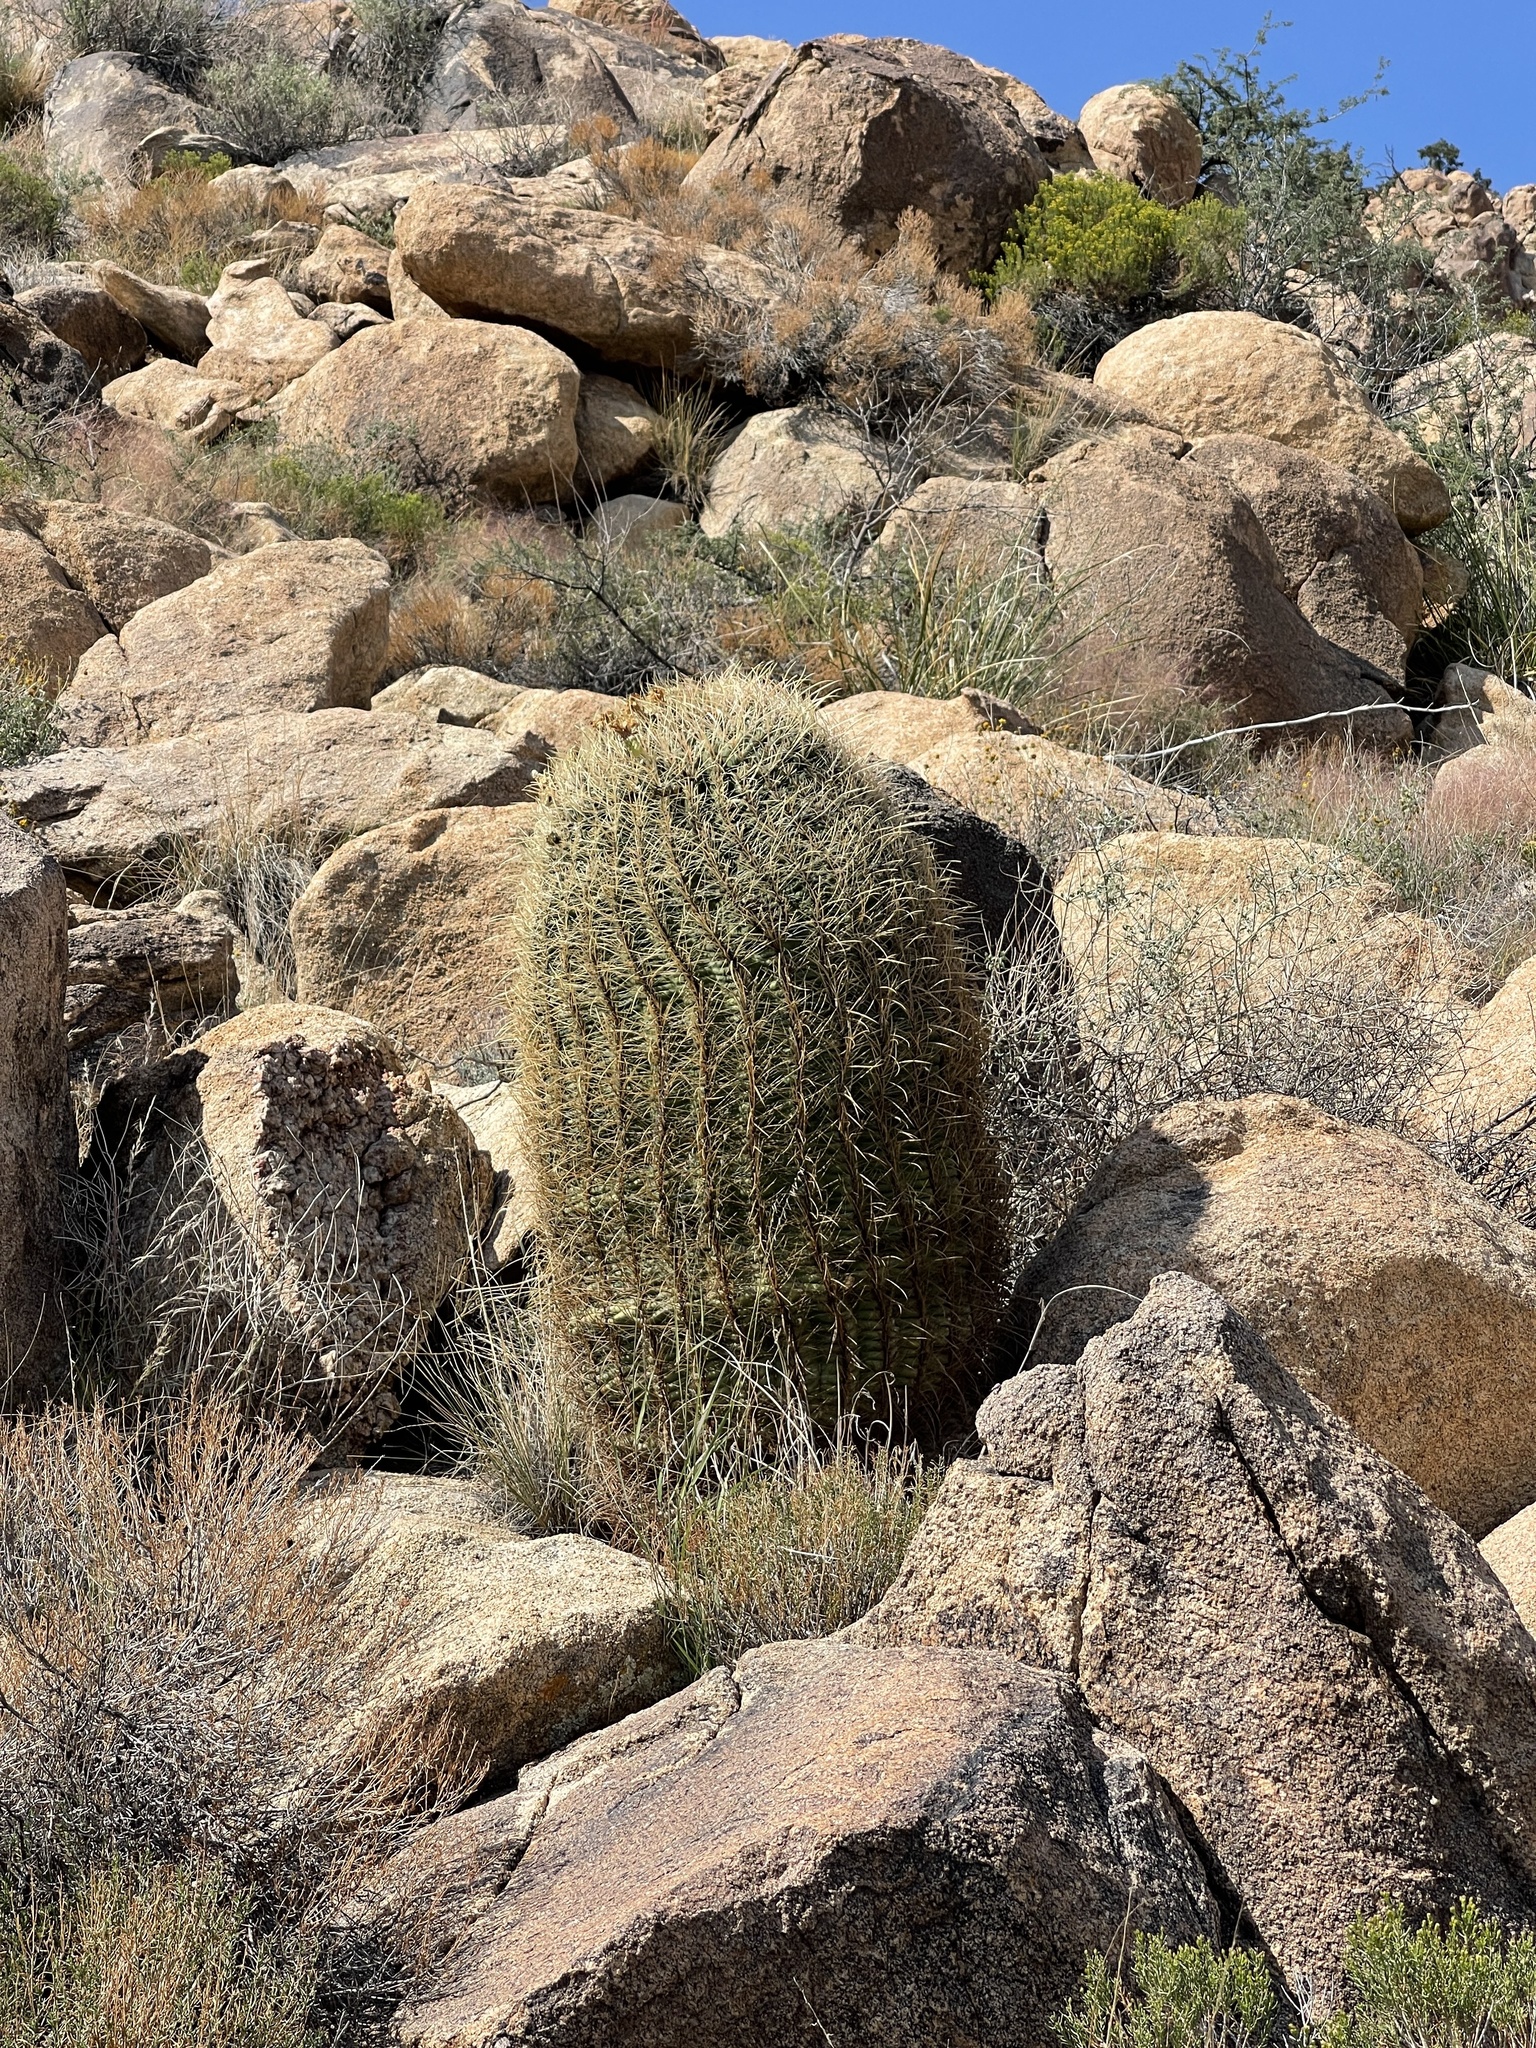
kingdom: Plantae
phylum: Tracheophyta
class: Magnoliopsida
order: Caryophyllales
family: Cactaceae
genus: Ferocactus
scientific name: Ferocactus cylindraceus
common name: California barrel cactus
